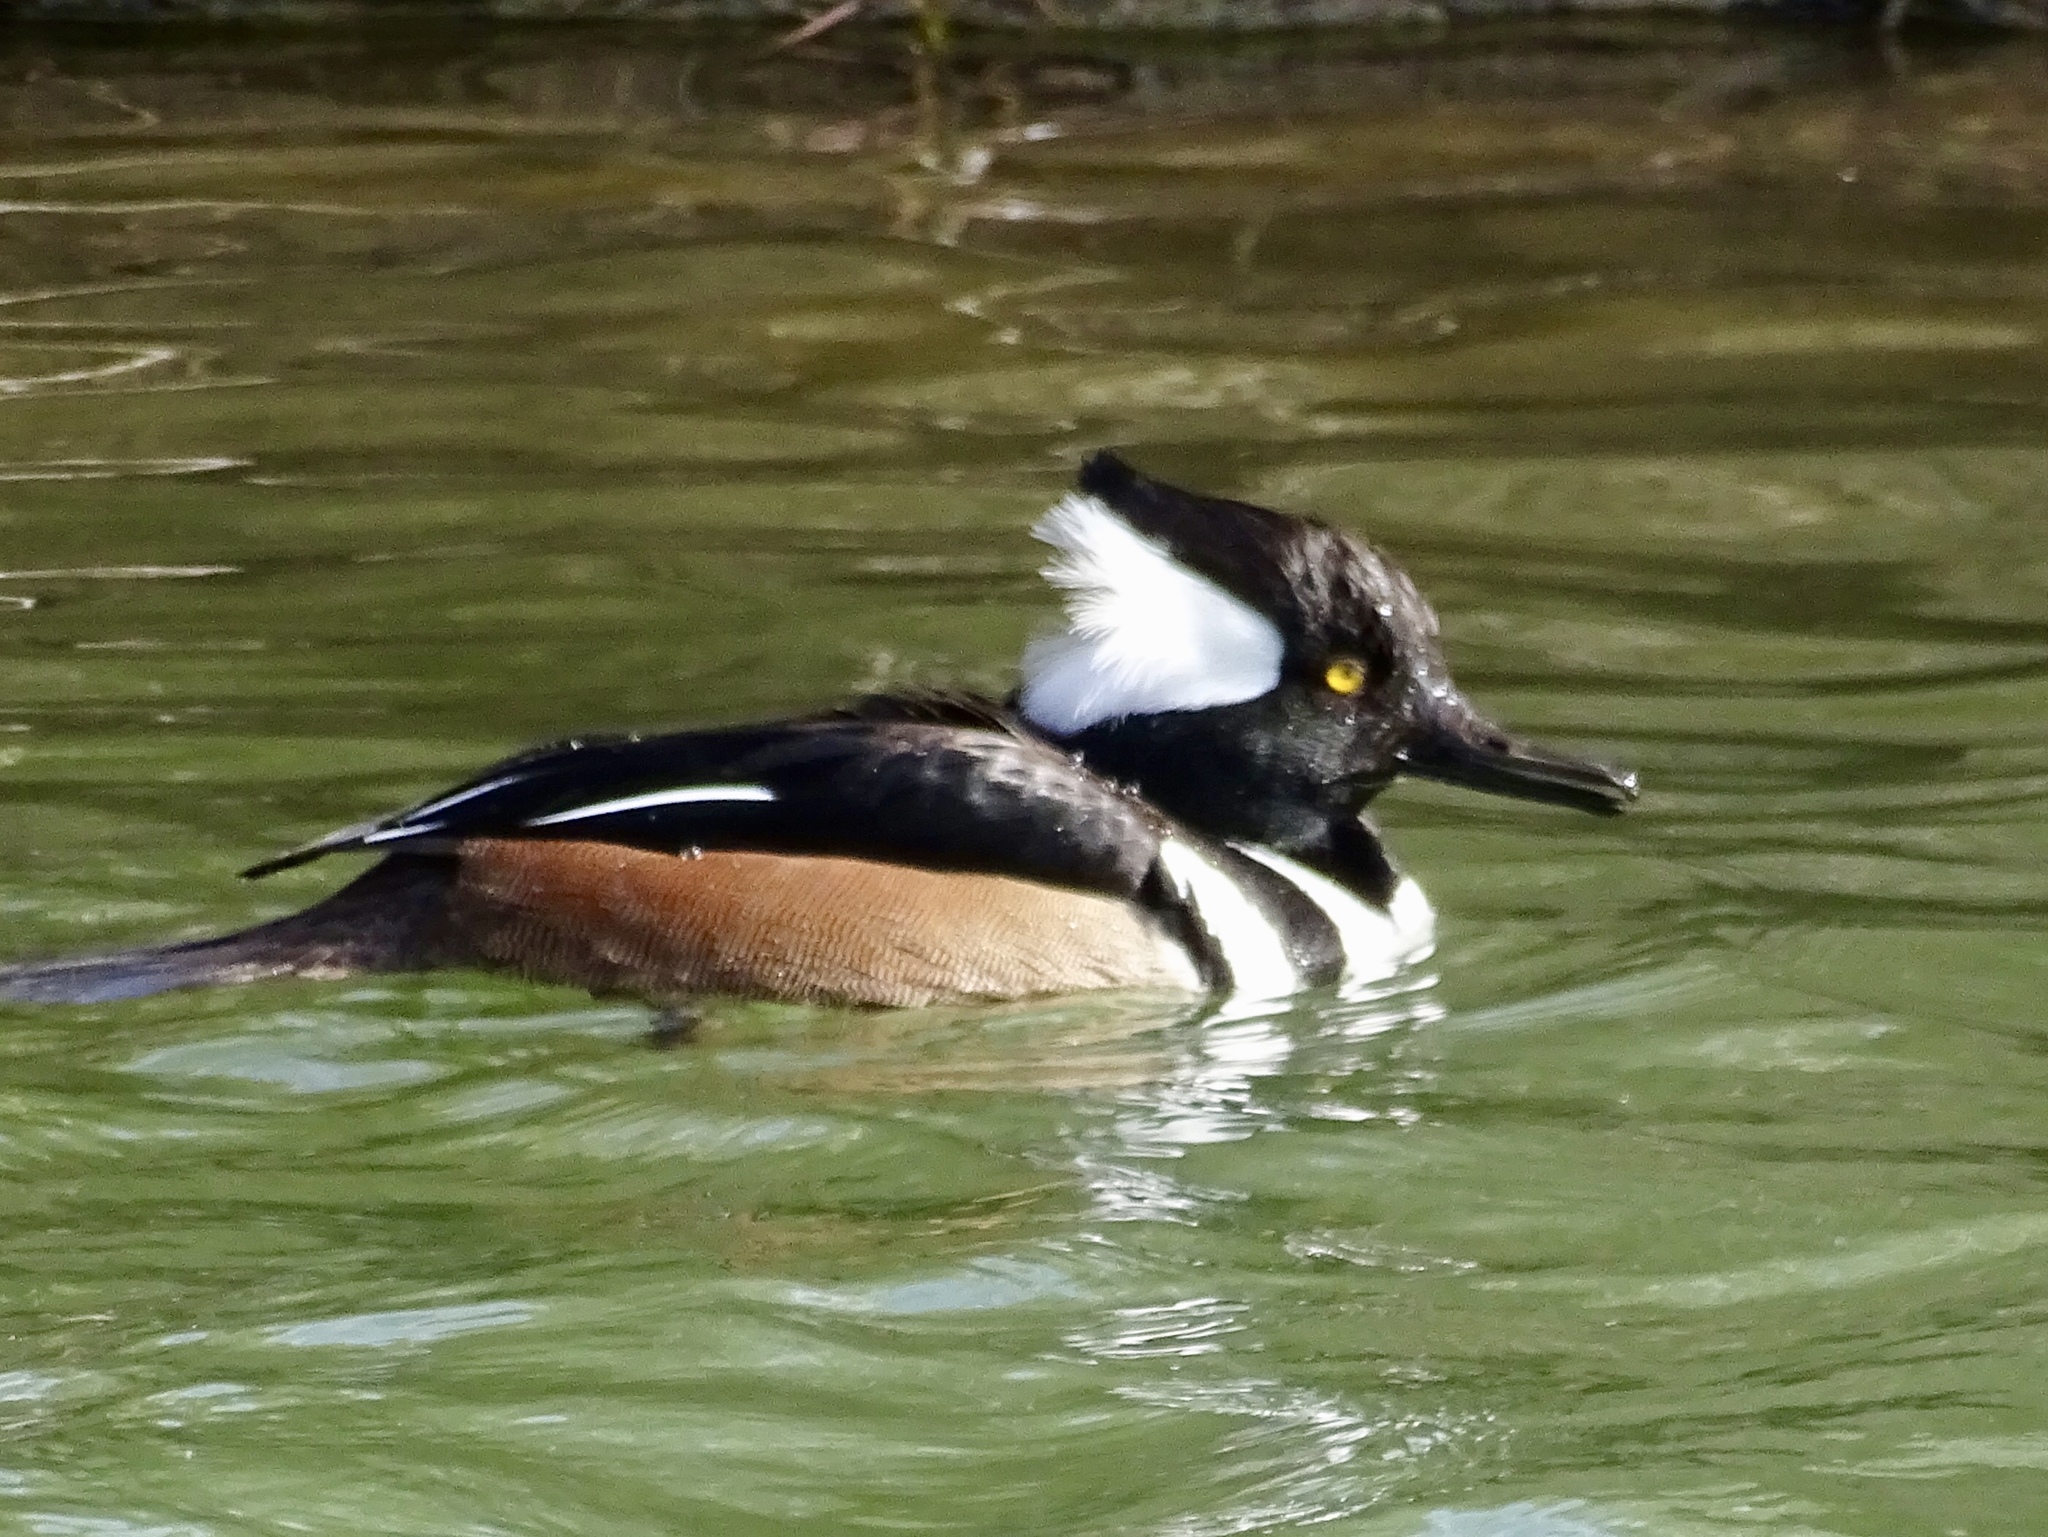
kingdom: Animalia
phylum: Chordata
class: Aves
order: Anseriformes
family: Anatidae
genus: Lophodytes
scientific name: Lophodytes cucullatus
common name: Hooded merganser
